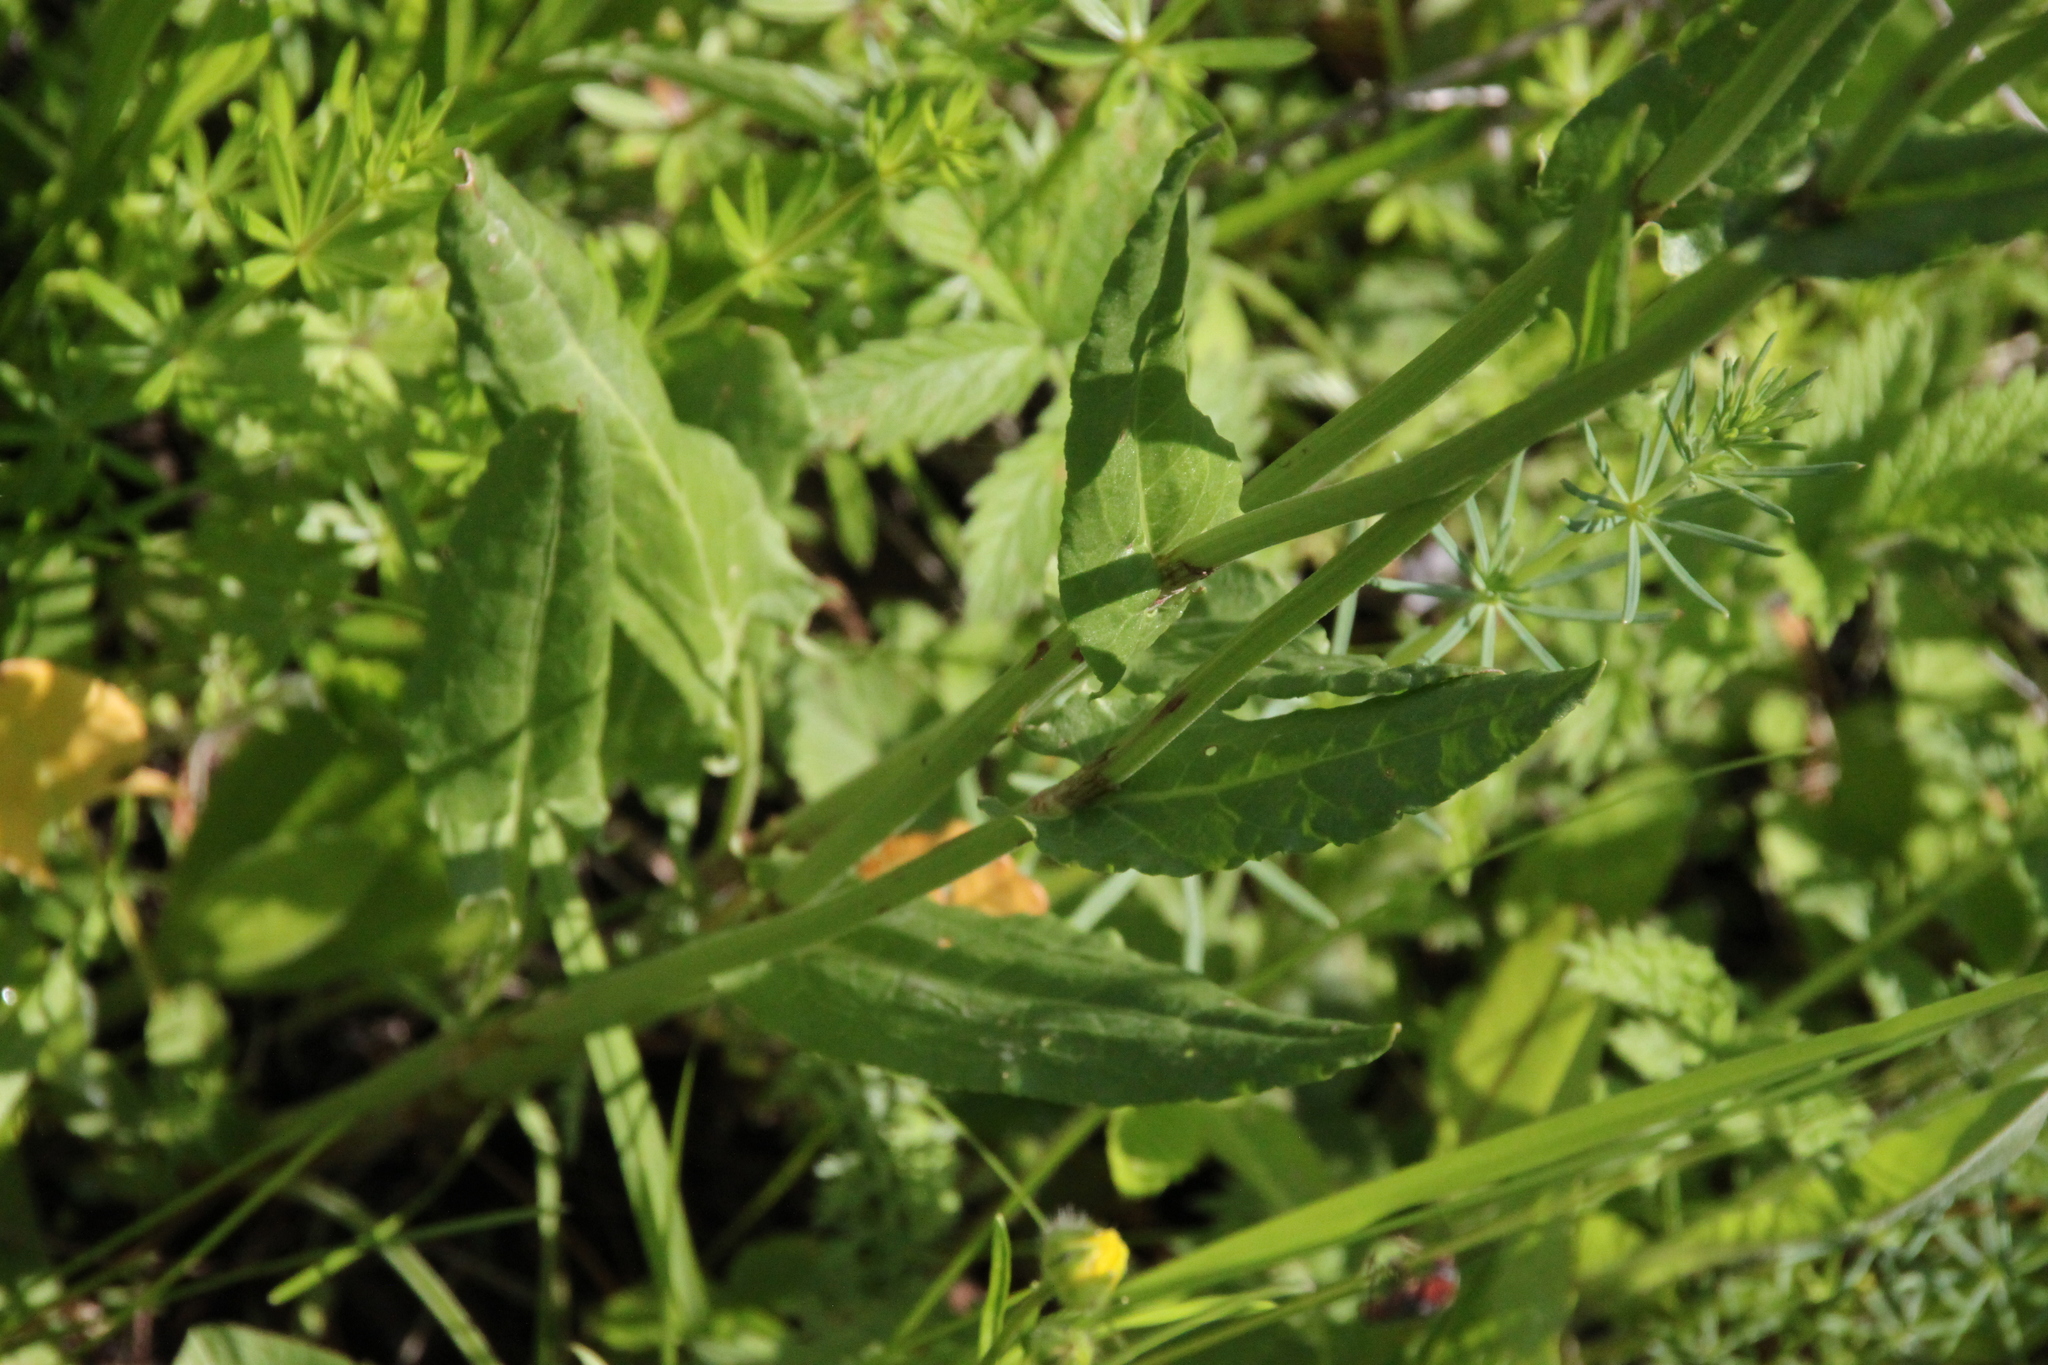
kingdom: Plantae
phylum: Tracheophyta
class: Magnoliopsida
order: Caryophyllales
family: Polygonaceae
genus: Rumex
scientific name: Rumex acetosa
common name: Garden sorrel
